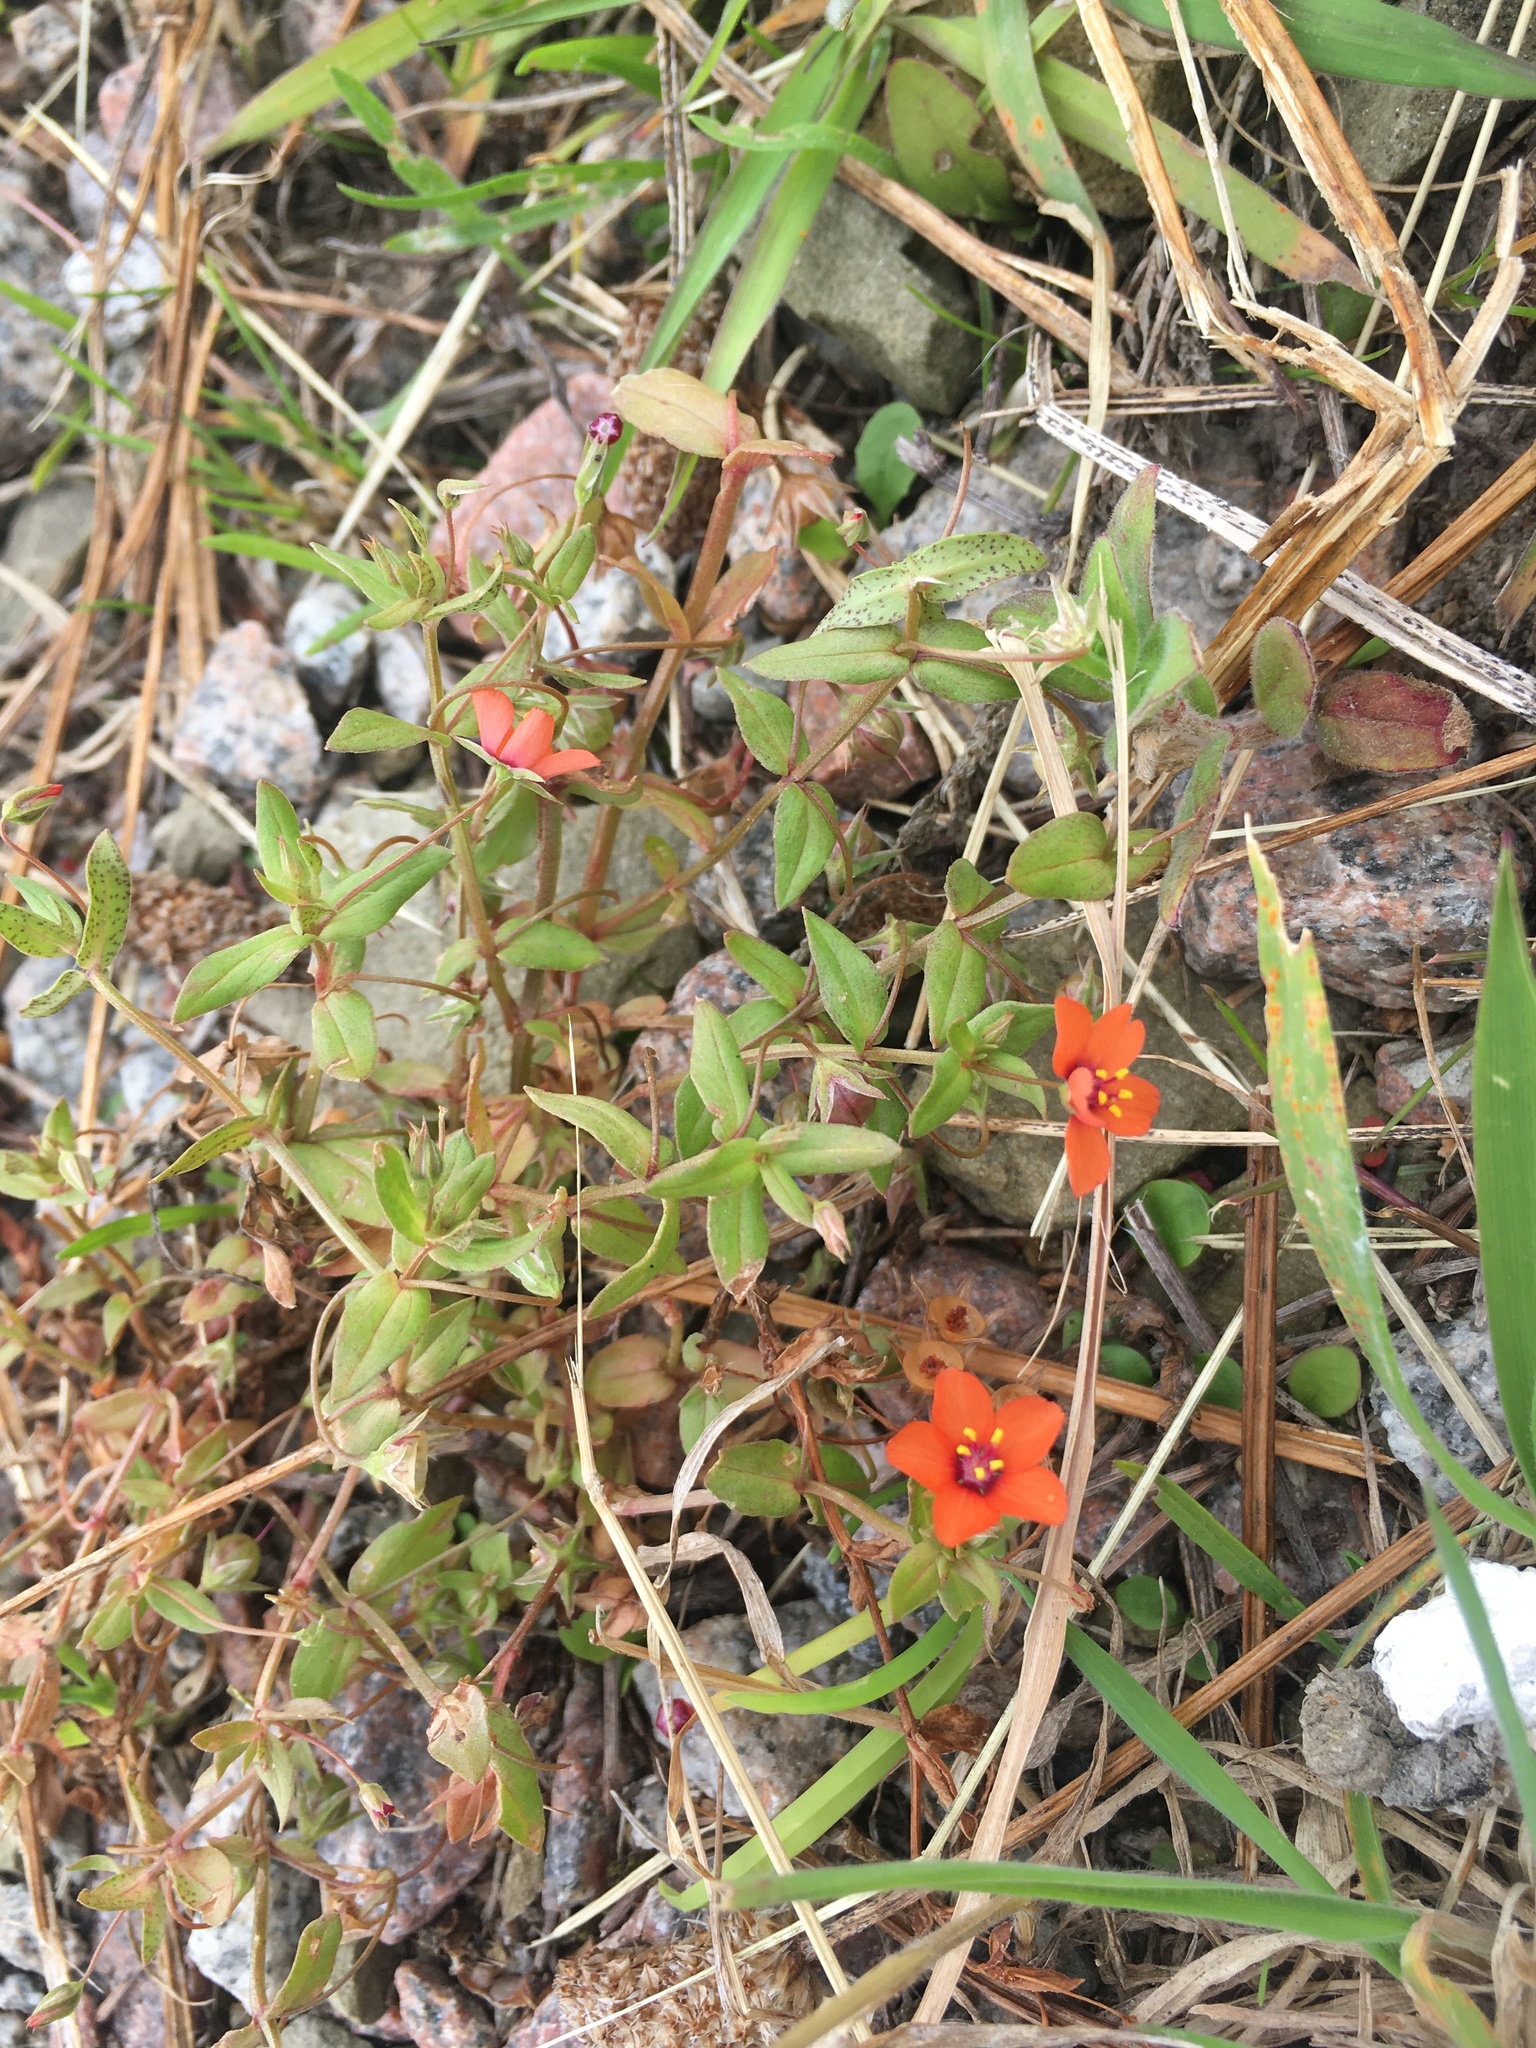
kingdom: Plantae
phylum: Tracheophyta
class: Magnoliopsida
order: Ericales
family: Primulaceae
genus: Lysimachia
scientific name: Lysimachia arvensis
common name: Scarlet pimpernel
